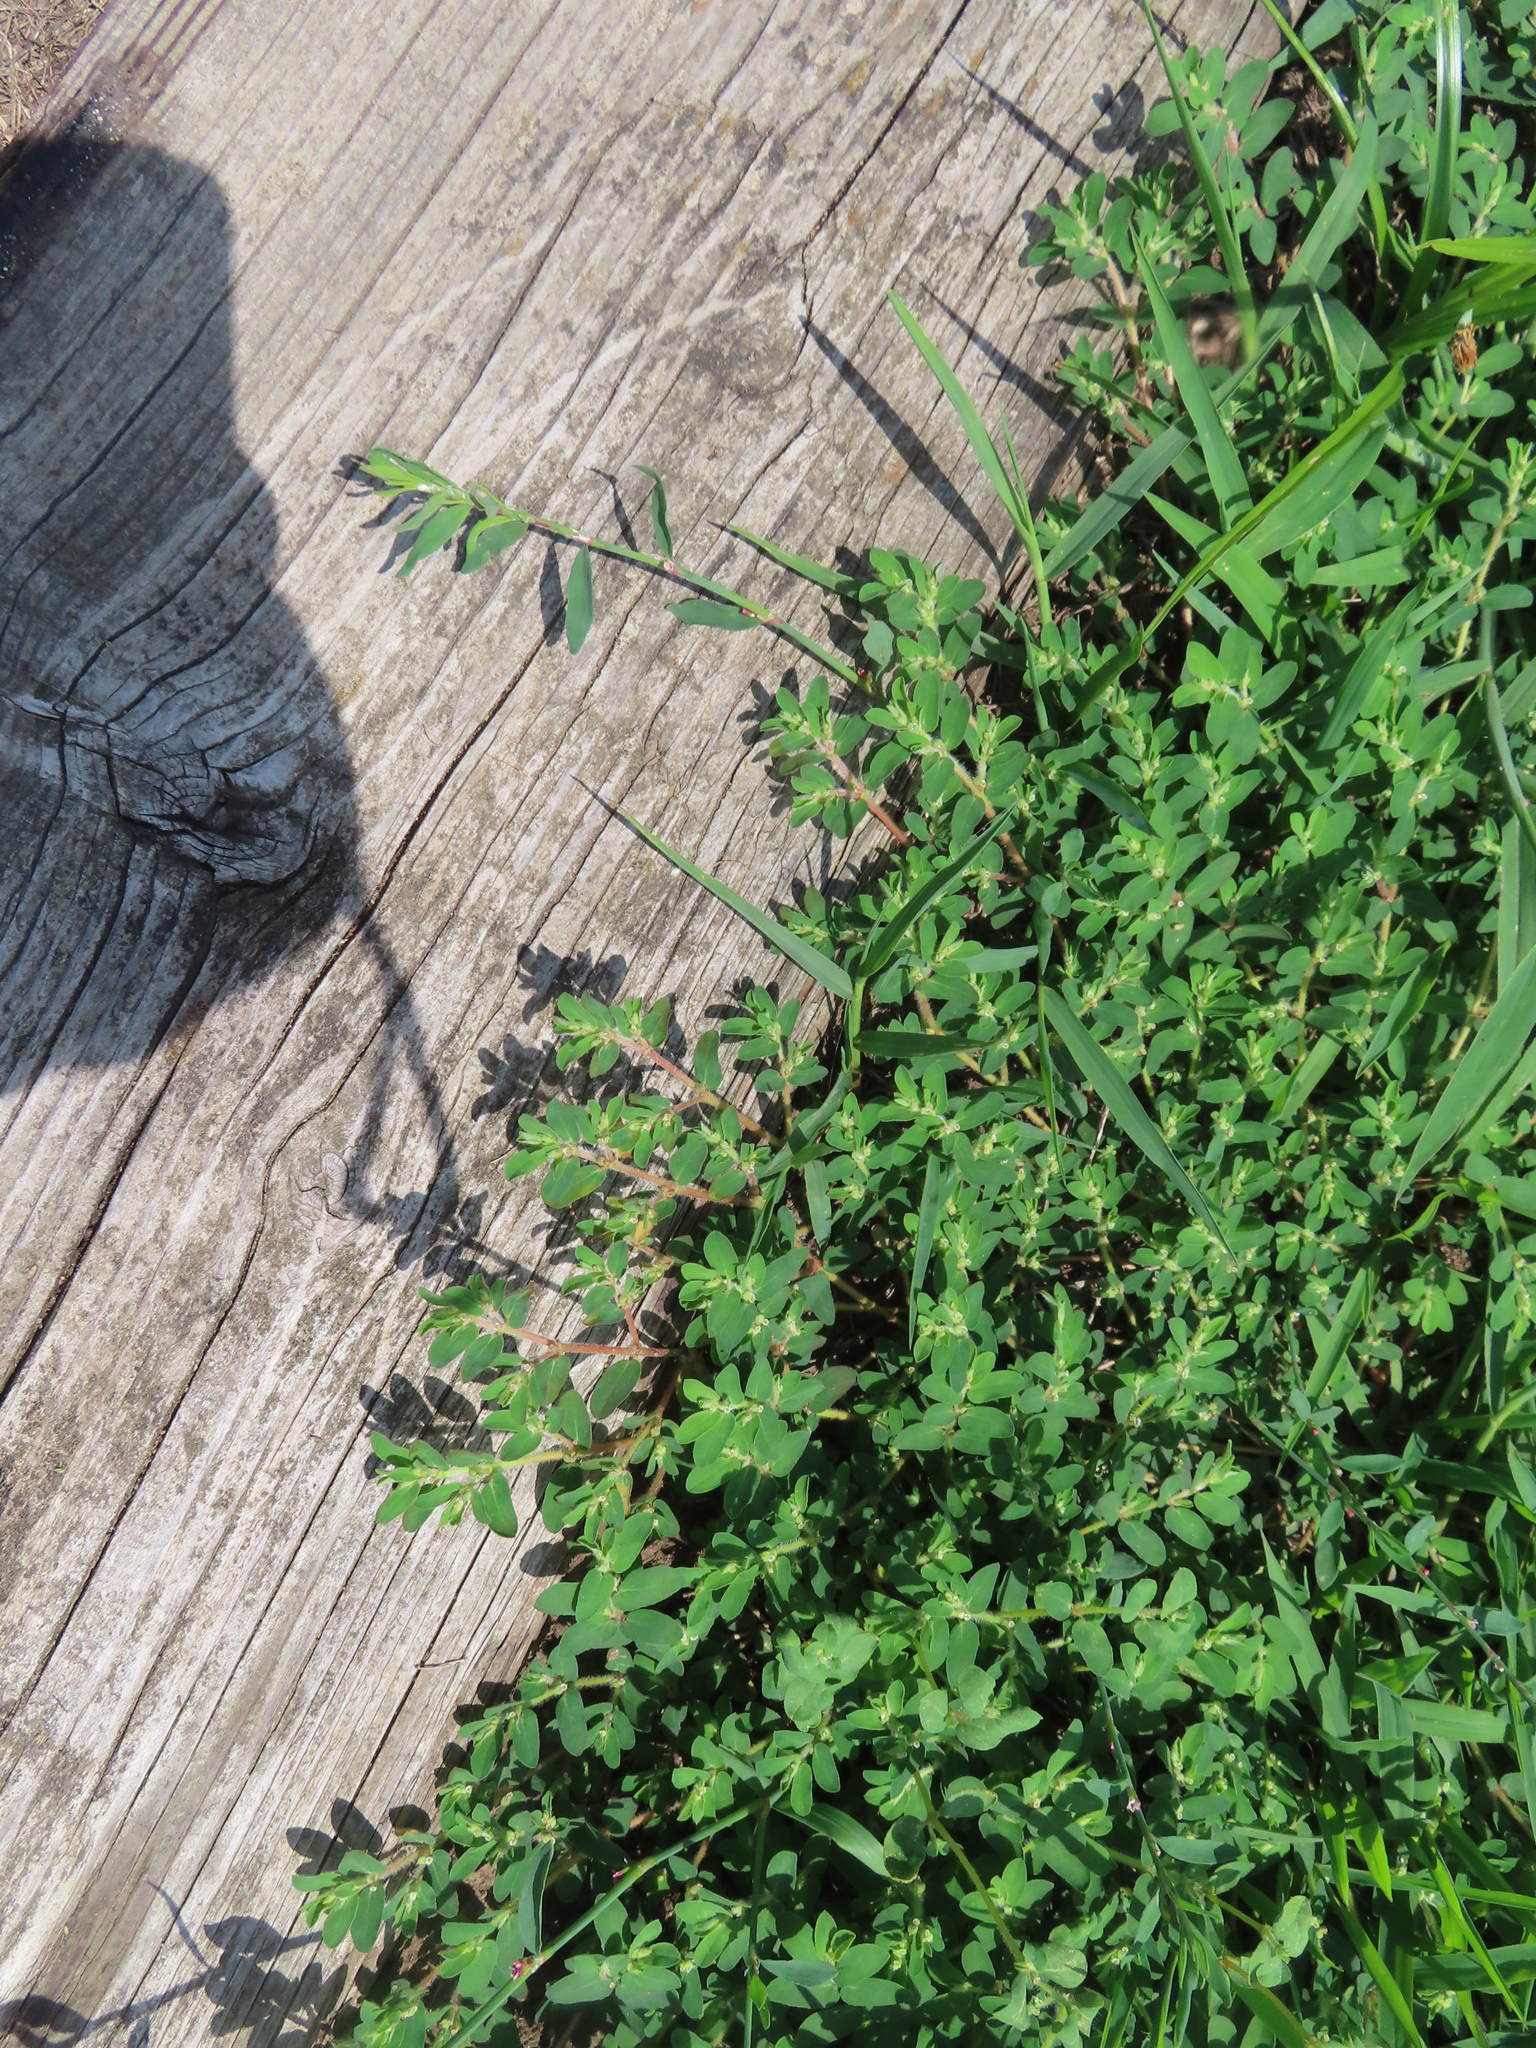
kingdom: Plantae
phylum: Tracheophyta
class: Magnoliopsida
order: Malpighiales
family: Euphorbiaceae
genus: Euphorbia
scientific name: Euphorbia maculata
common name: Spotted spurge
